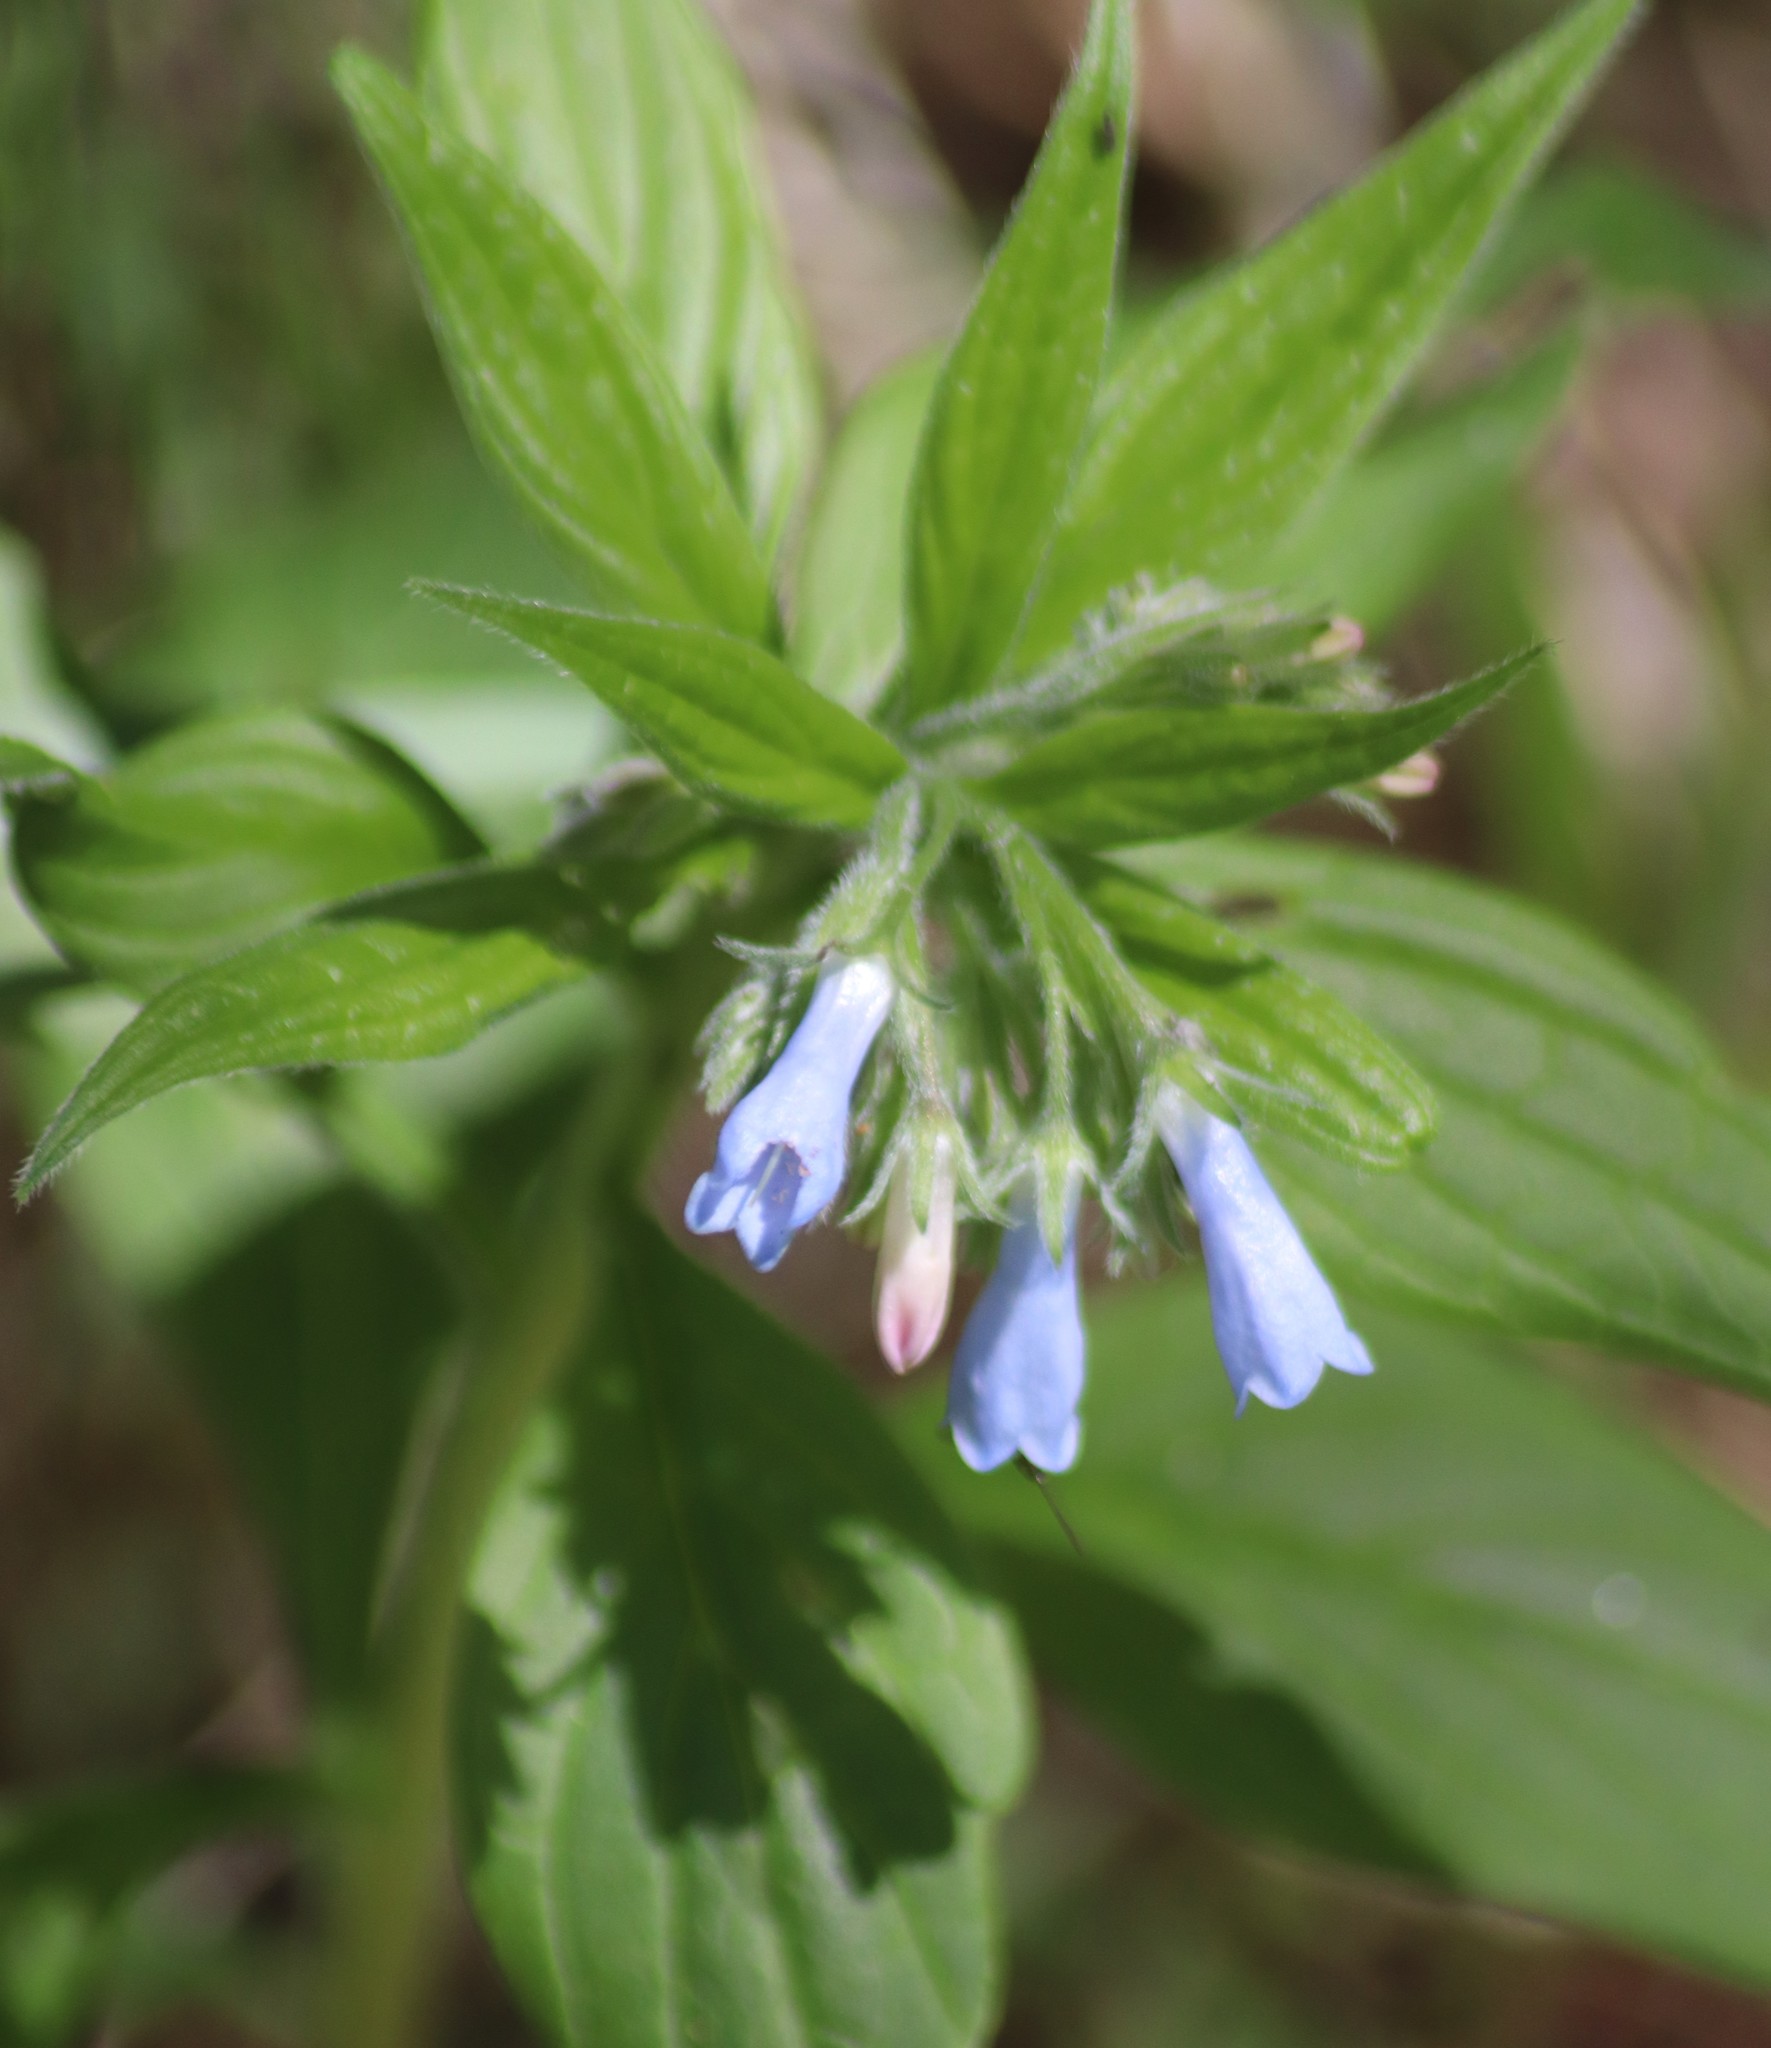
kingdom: Plantae
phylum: Tracheophyta
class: Magnoliopsida
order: Boraginales
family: Boraginaceae
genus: Mertensia
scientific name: Mertensia paniculata
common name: Panicled bluebells
